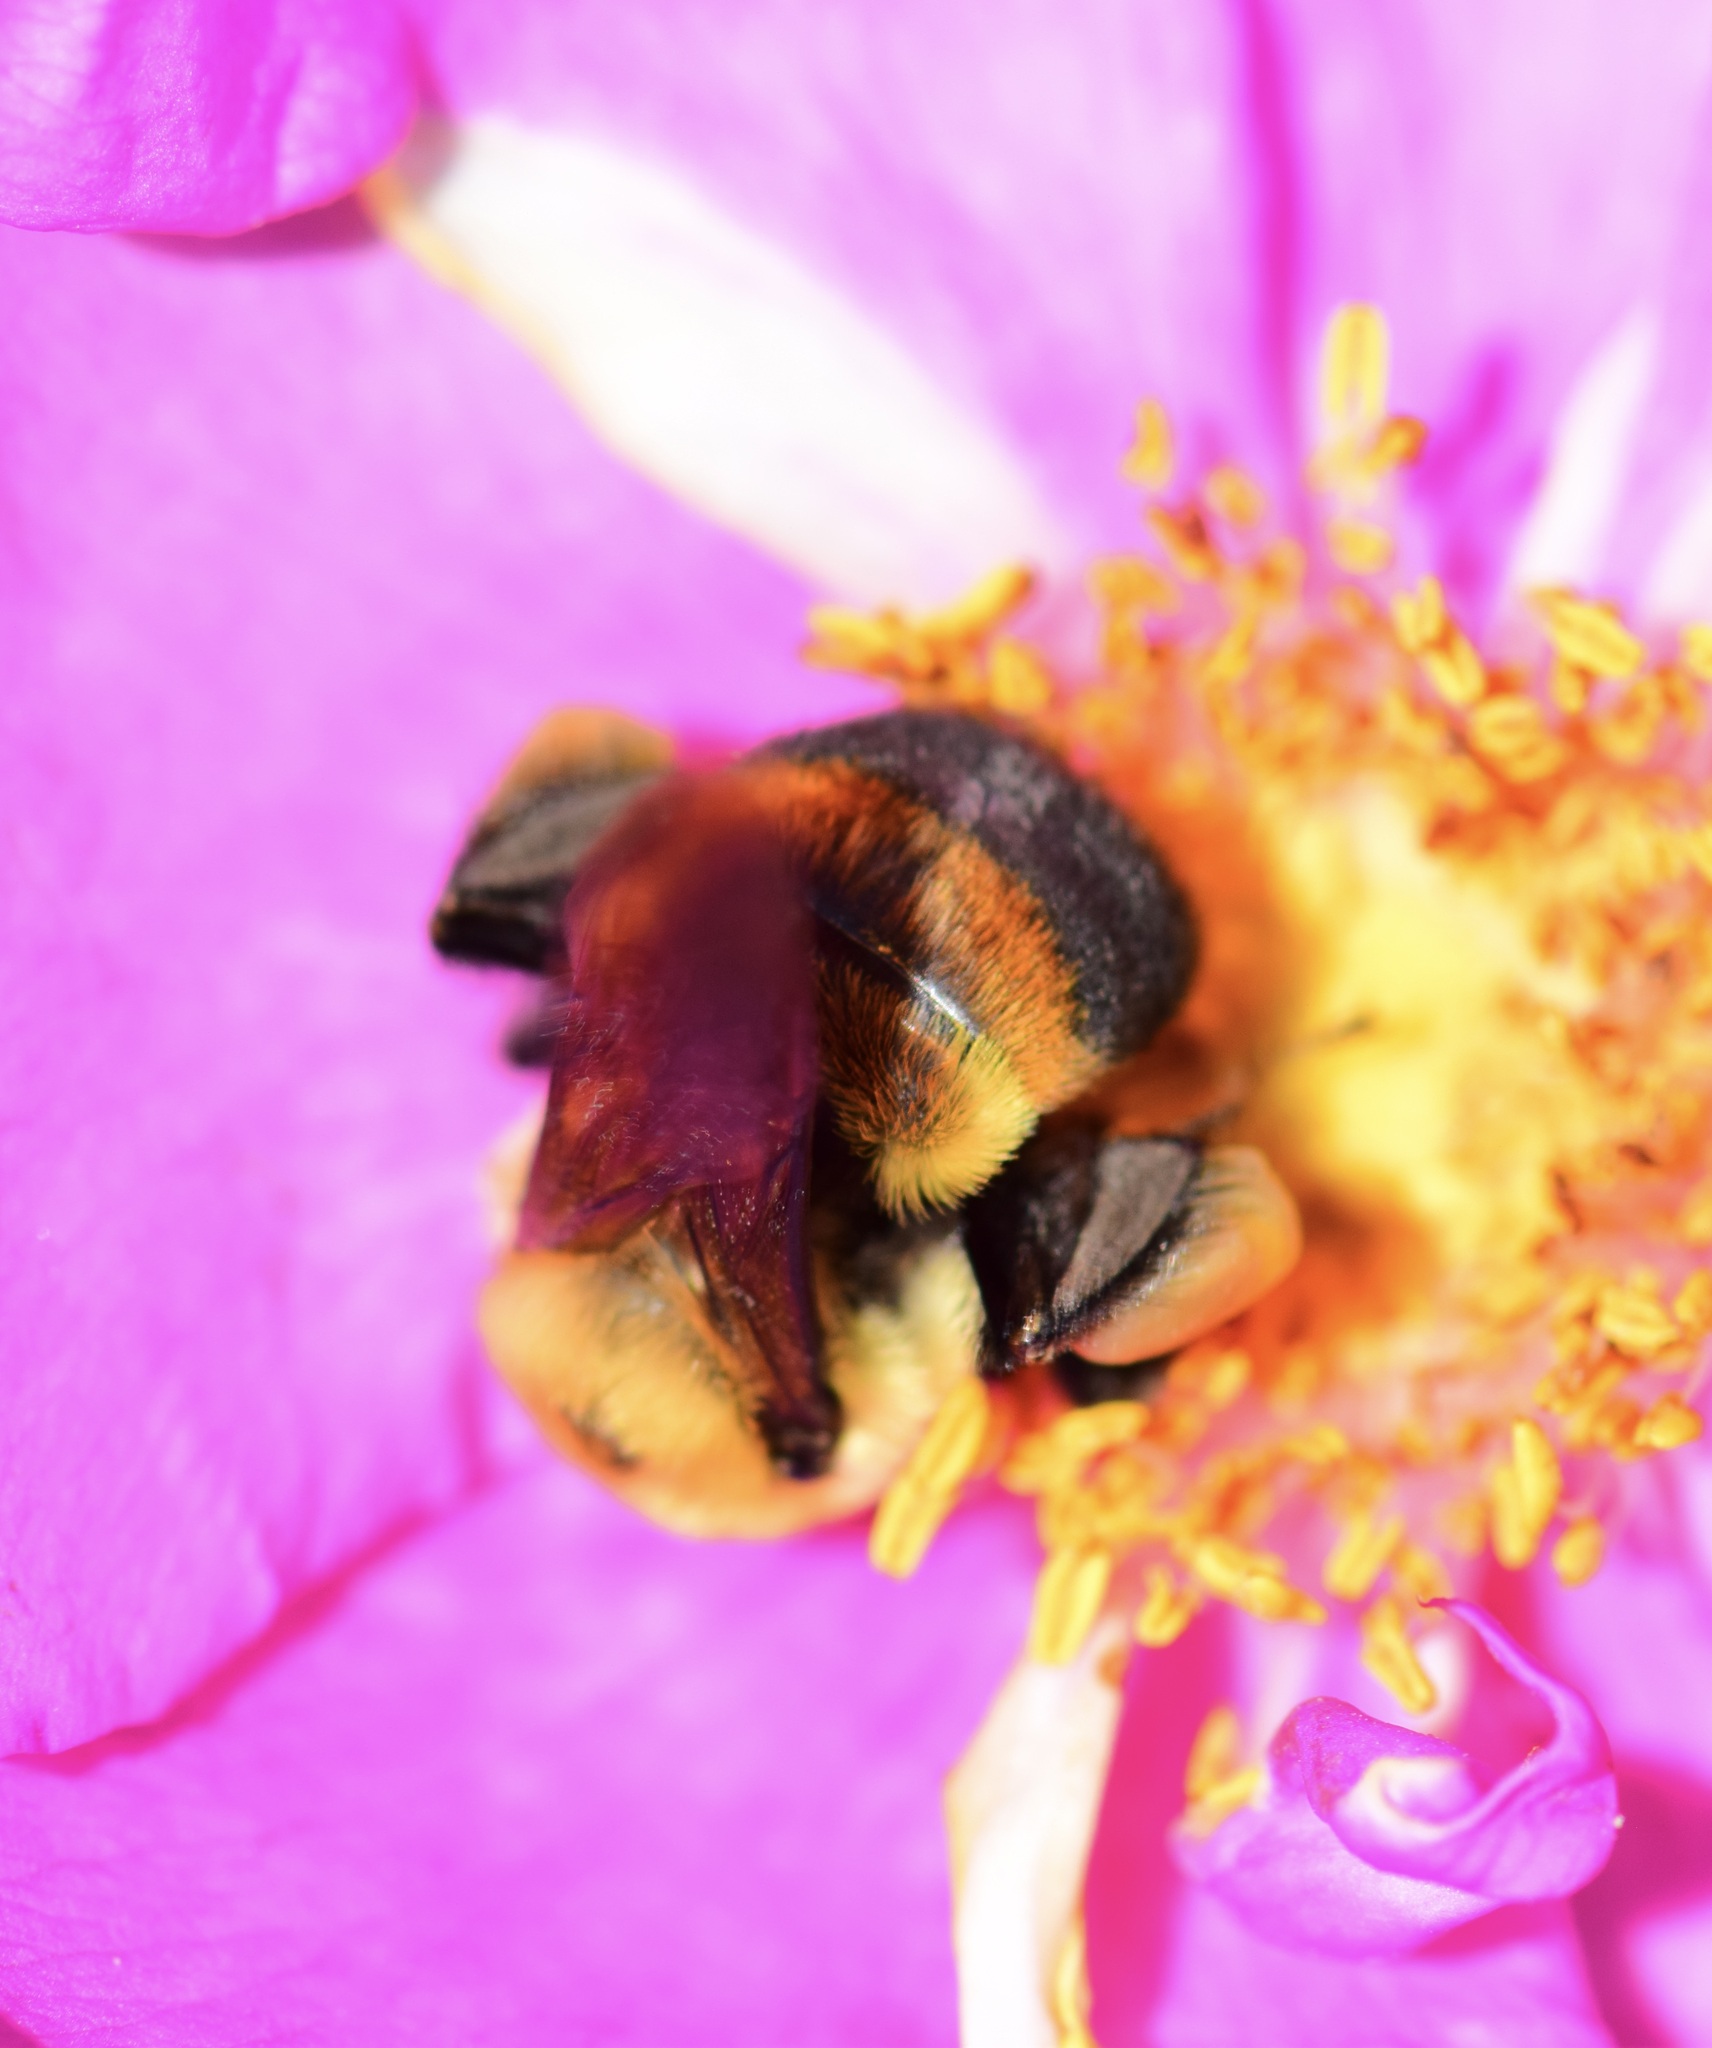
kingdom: Animalia
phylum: Arthropoda
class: Insecta
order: Hymenoptera
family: Apidae
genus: Bombus
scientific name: Bombus griseocollis
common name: Brown-belted bumble bee
